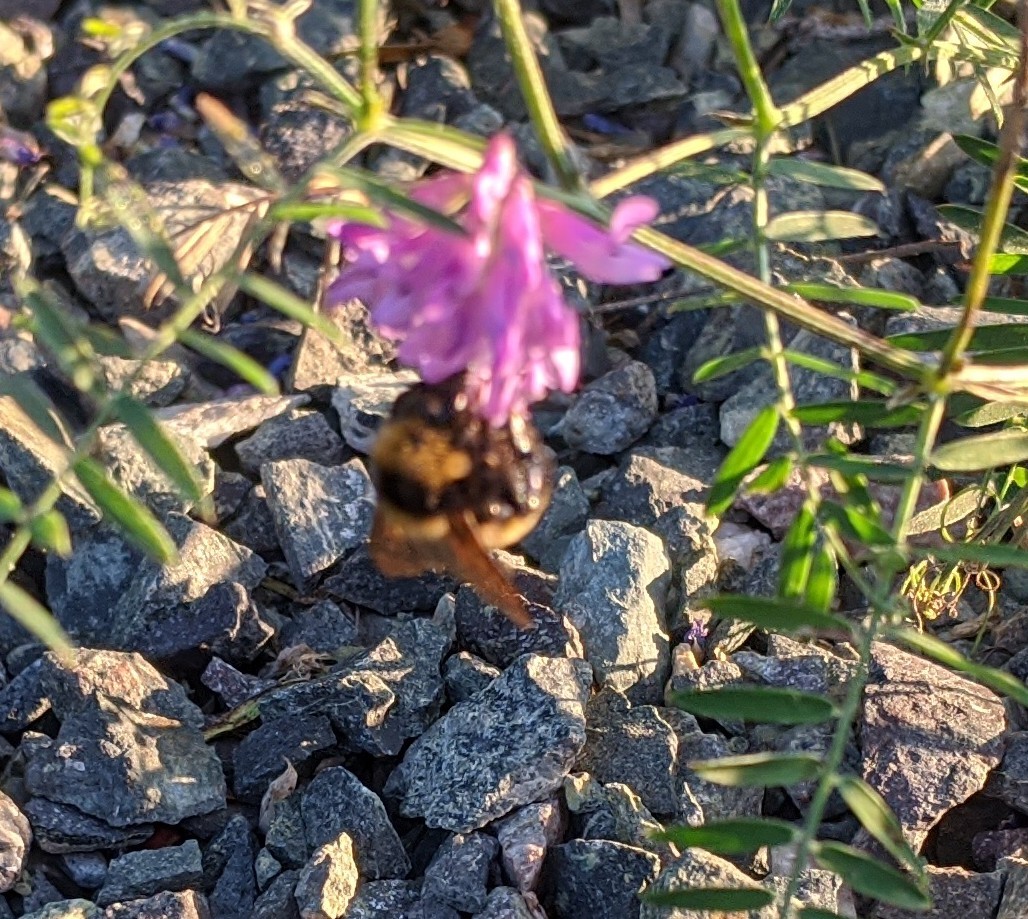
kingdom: Animalia
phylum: Arthropoda
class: Insecta
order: Hymenoptera
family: Apidae
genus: Bombus
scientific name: Bombus borealis
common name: Northern amber bumble bee
